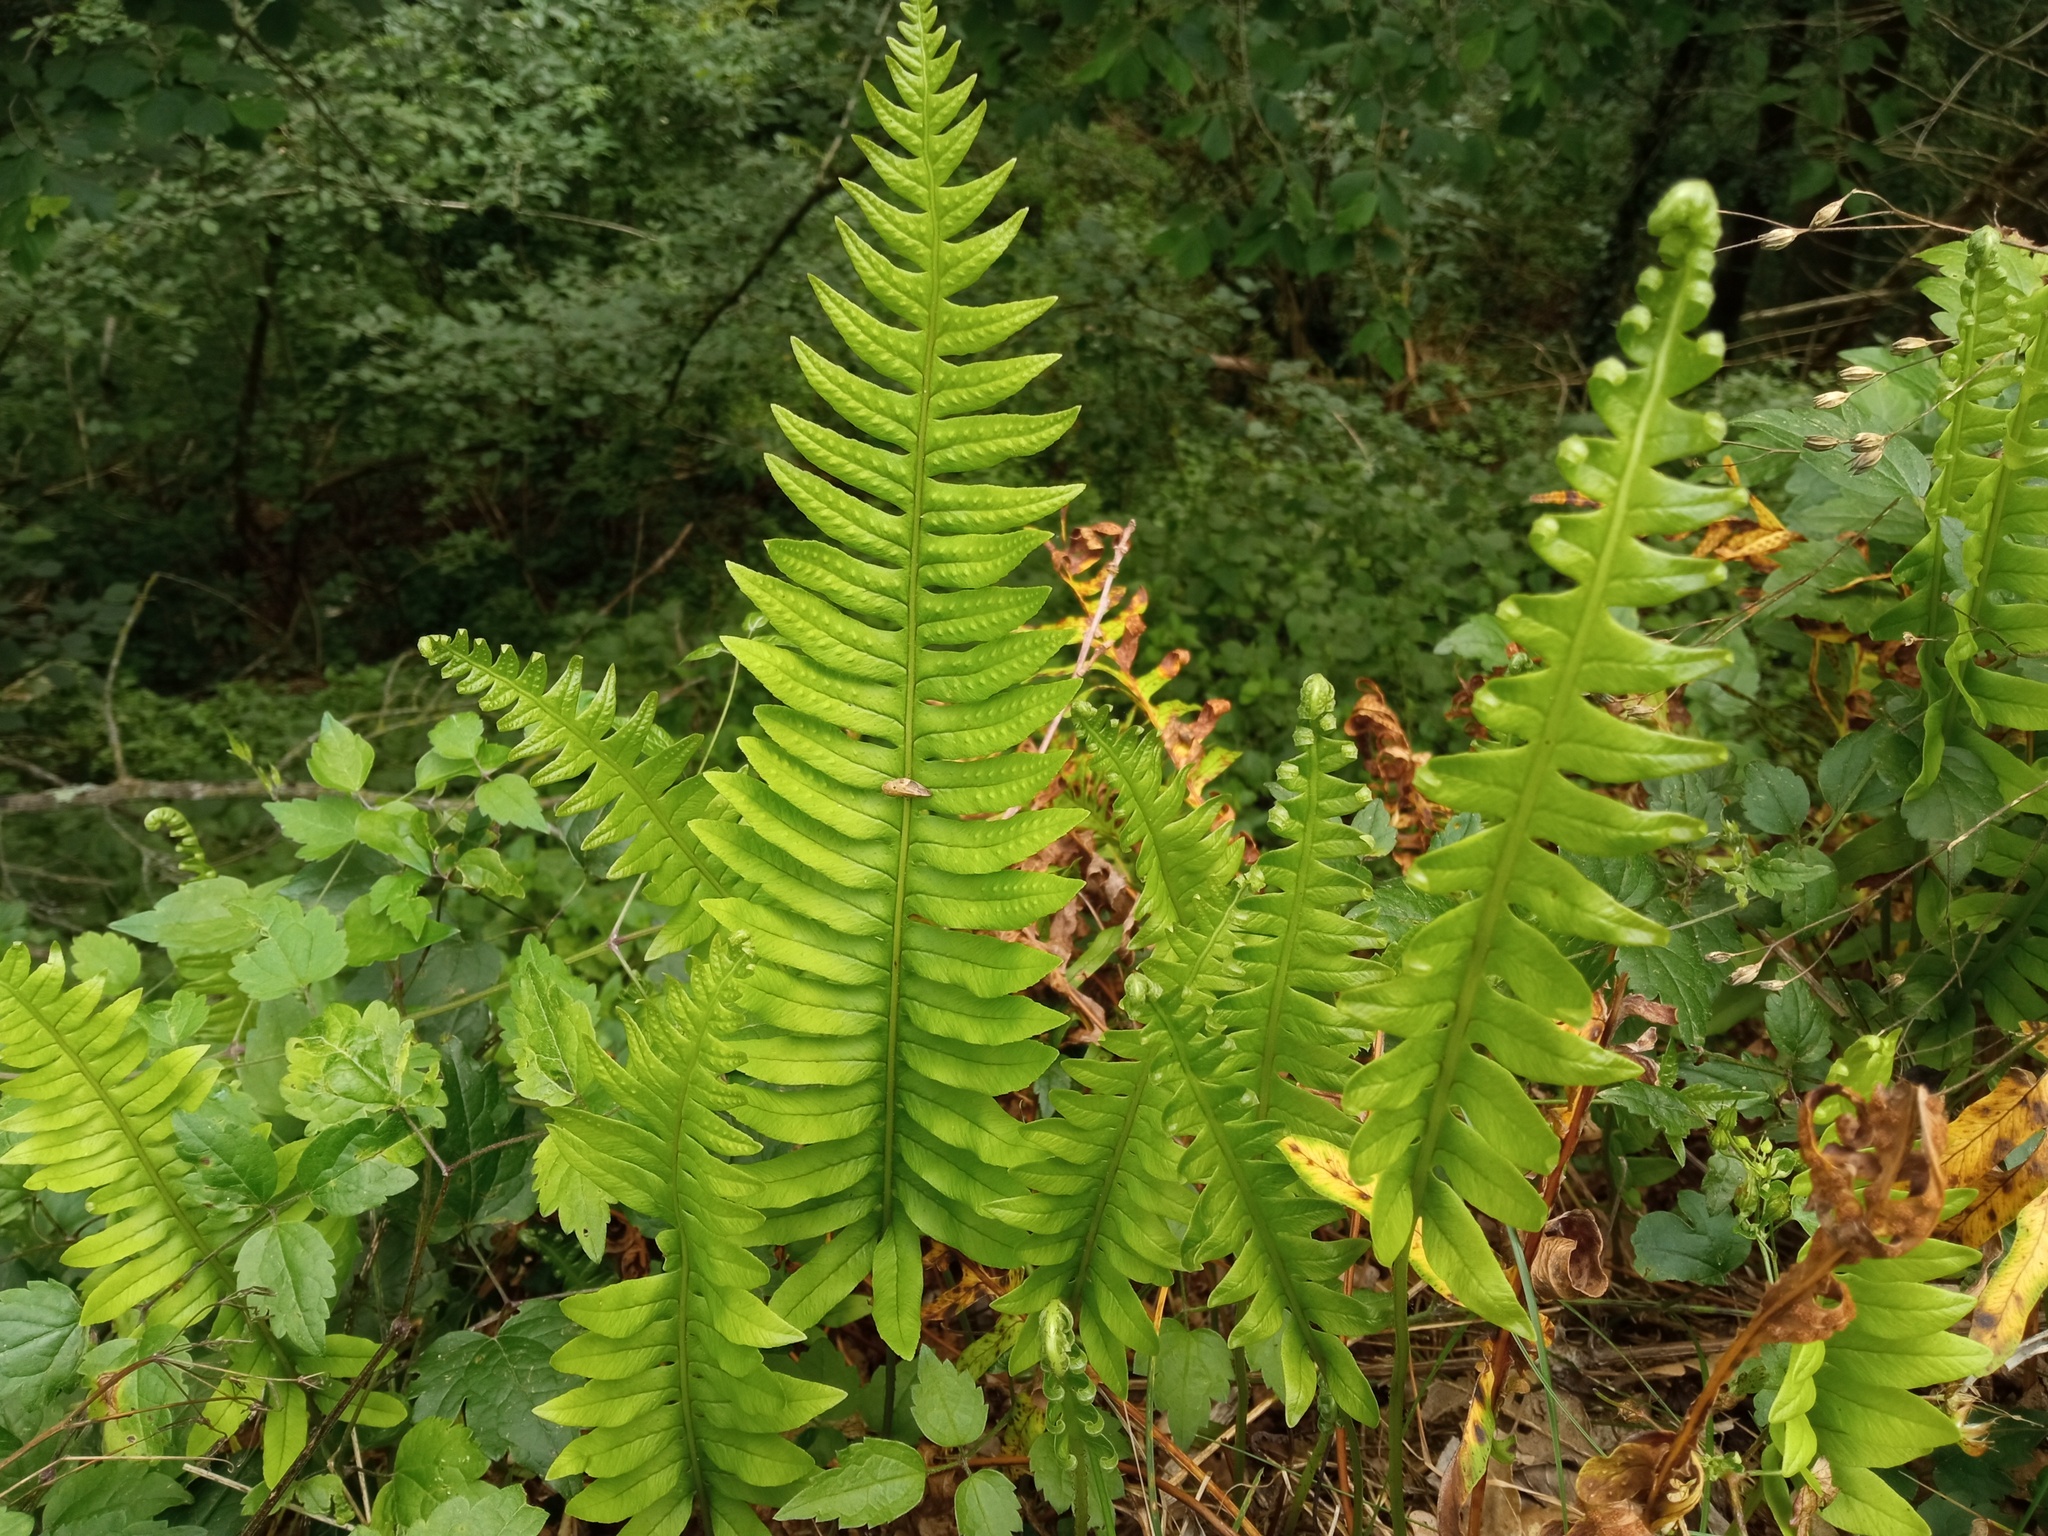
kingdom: Plantae
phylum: Tracheophyta
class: Polypodiopsida
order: Polypodiales
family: Polypodiaceae
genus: Polypodium
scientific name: Polypodium interjectum
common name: Intermediate polypody
